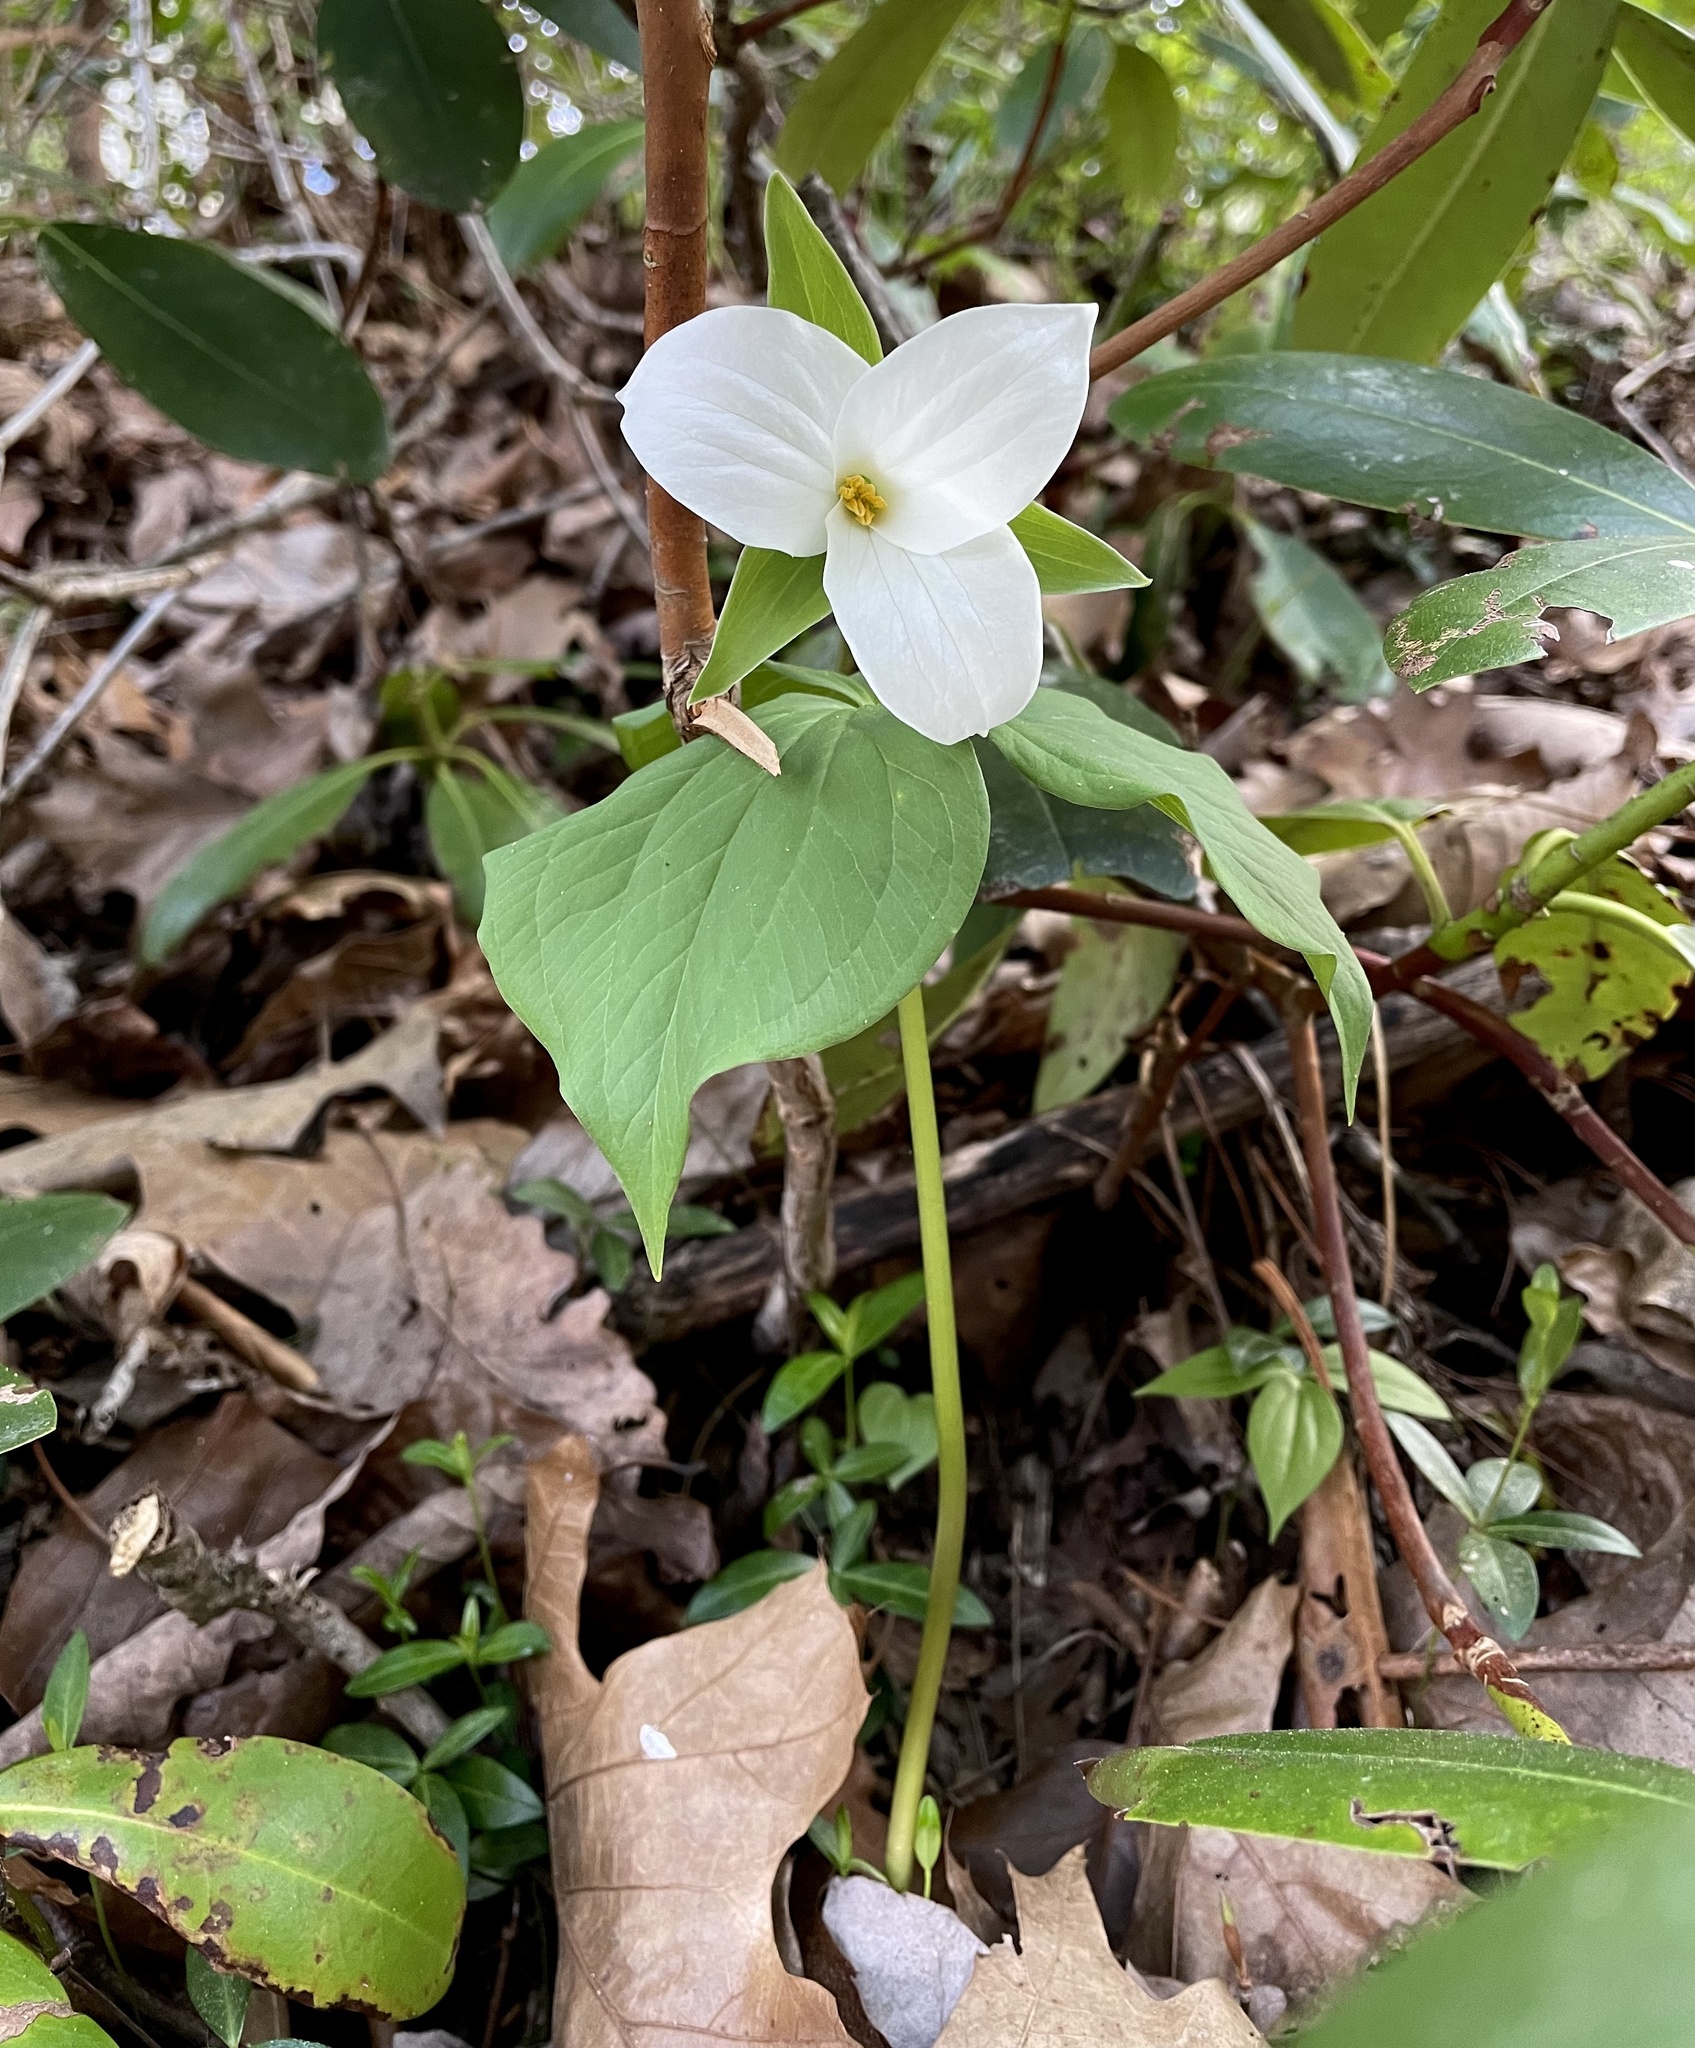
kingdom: Plantae
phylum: Tracheophyta
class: Liliopsida
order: Liliales
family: Melanthiaceae
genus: Trillium
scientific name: Trillium grandiflorum
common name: Great white trillium
